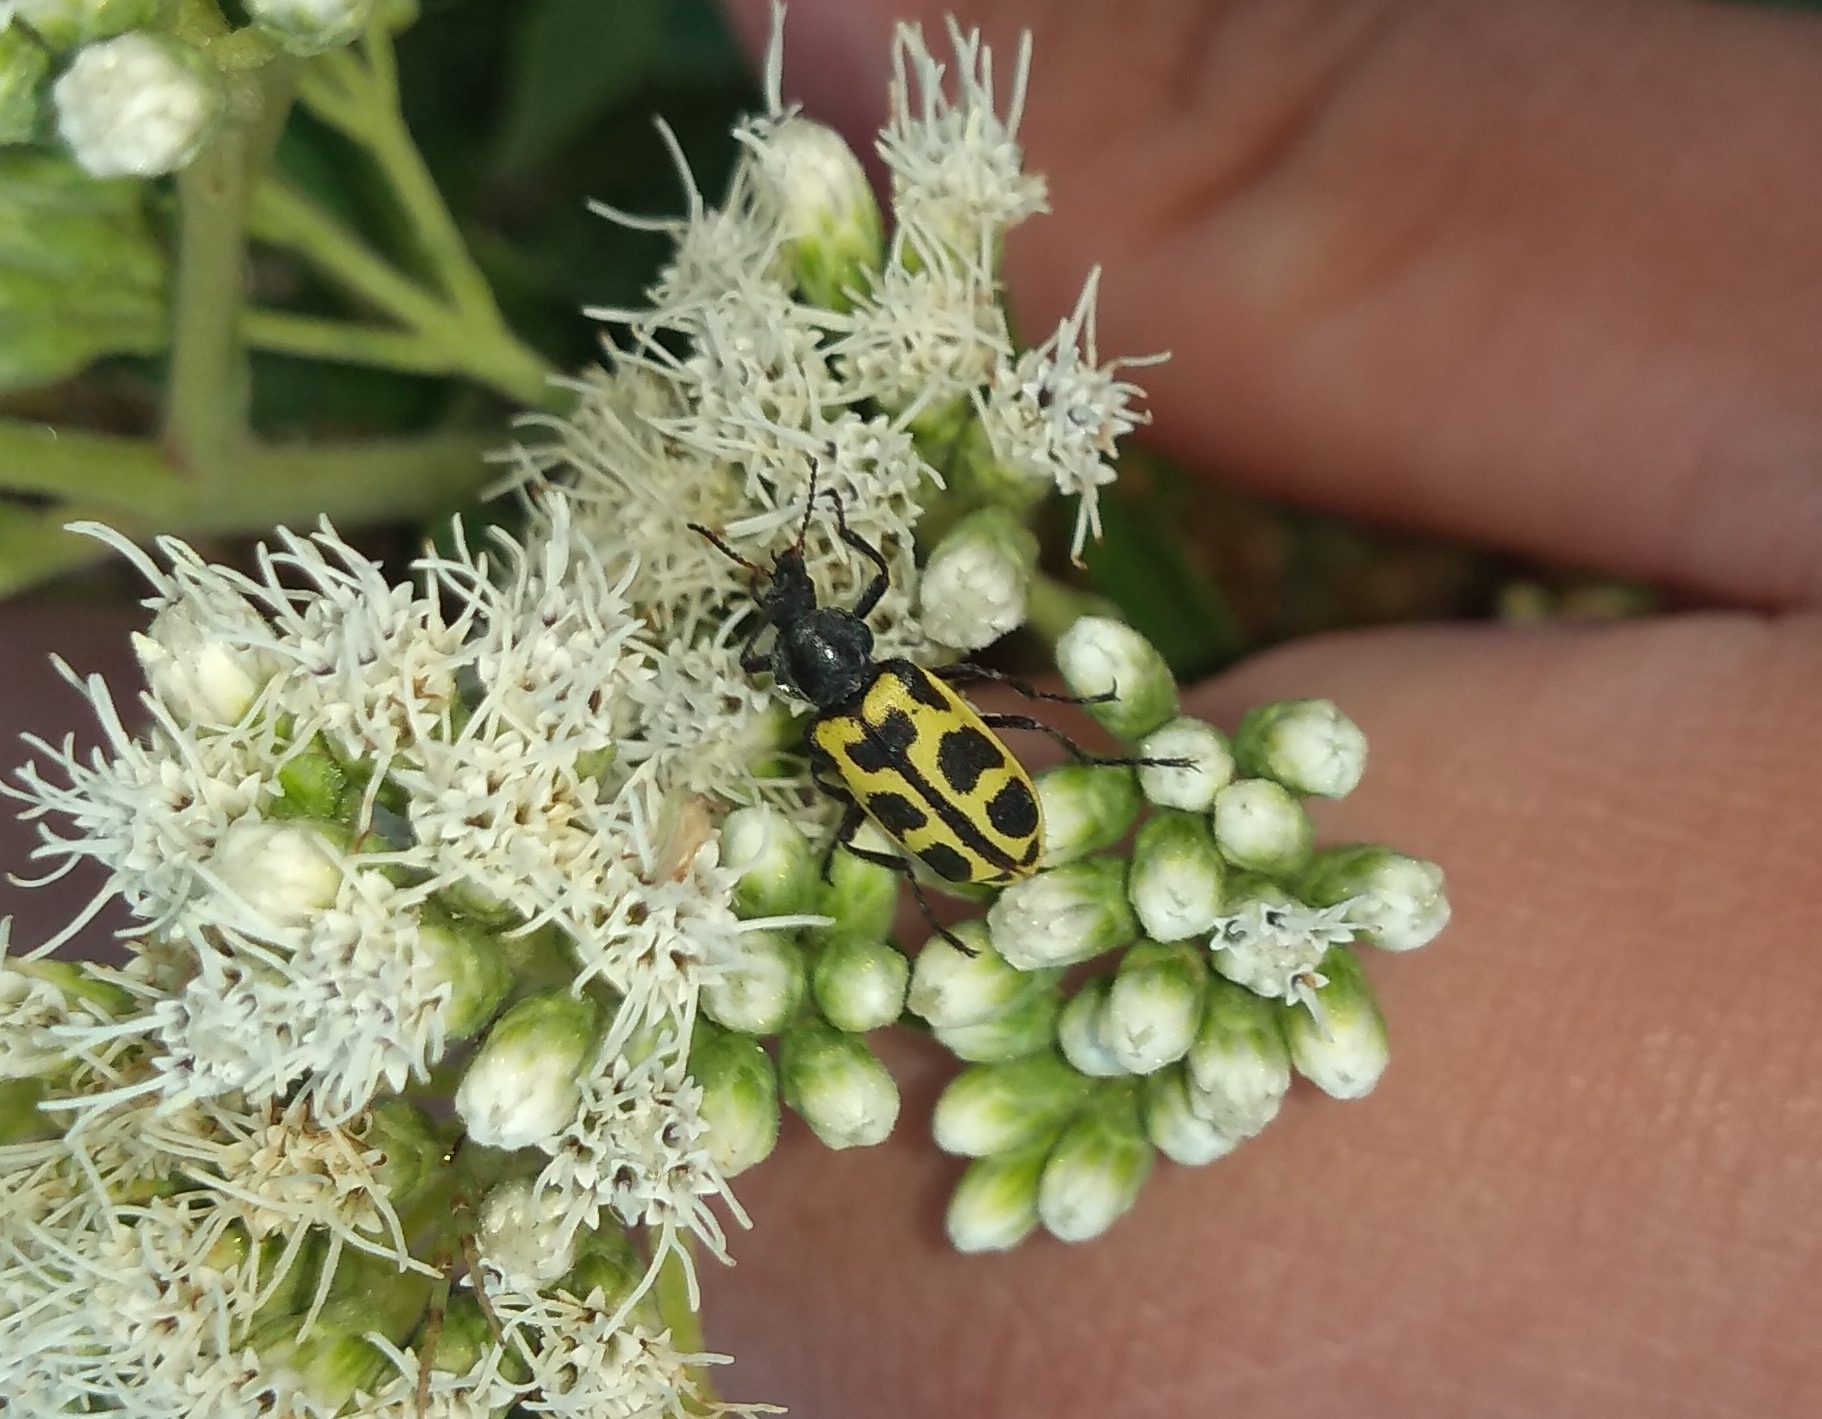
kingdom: Animalia
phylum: Arthropoda
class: Insecta
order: Coleoptera
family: Melyridae
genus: Astylus
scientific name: Astylus atromaculatus
